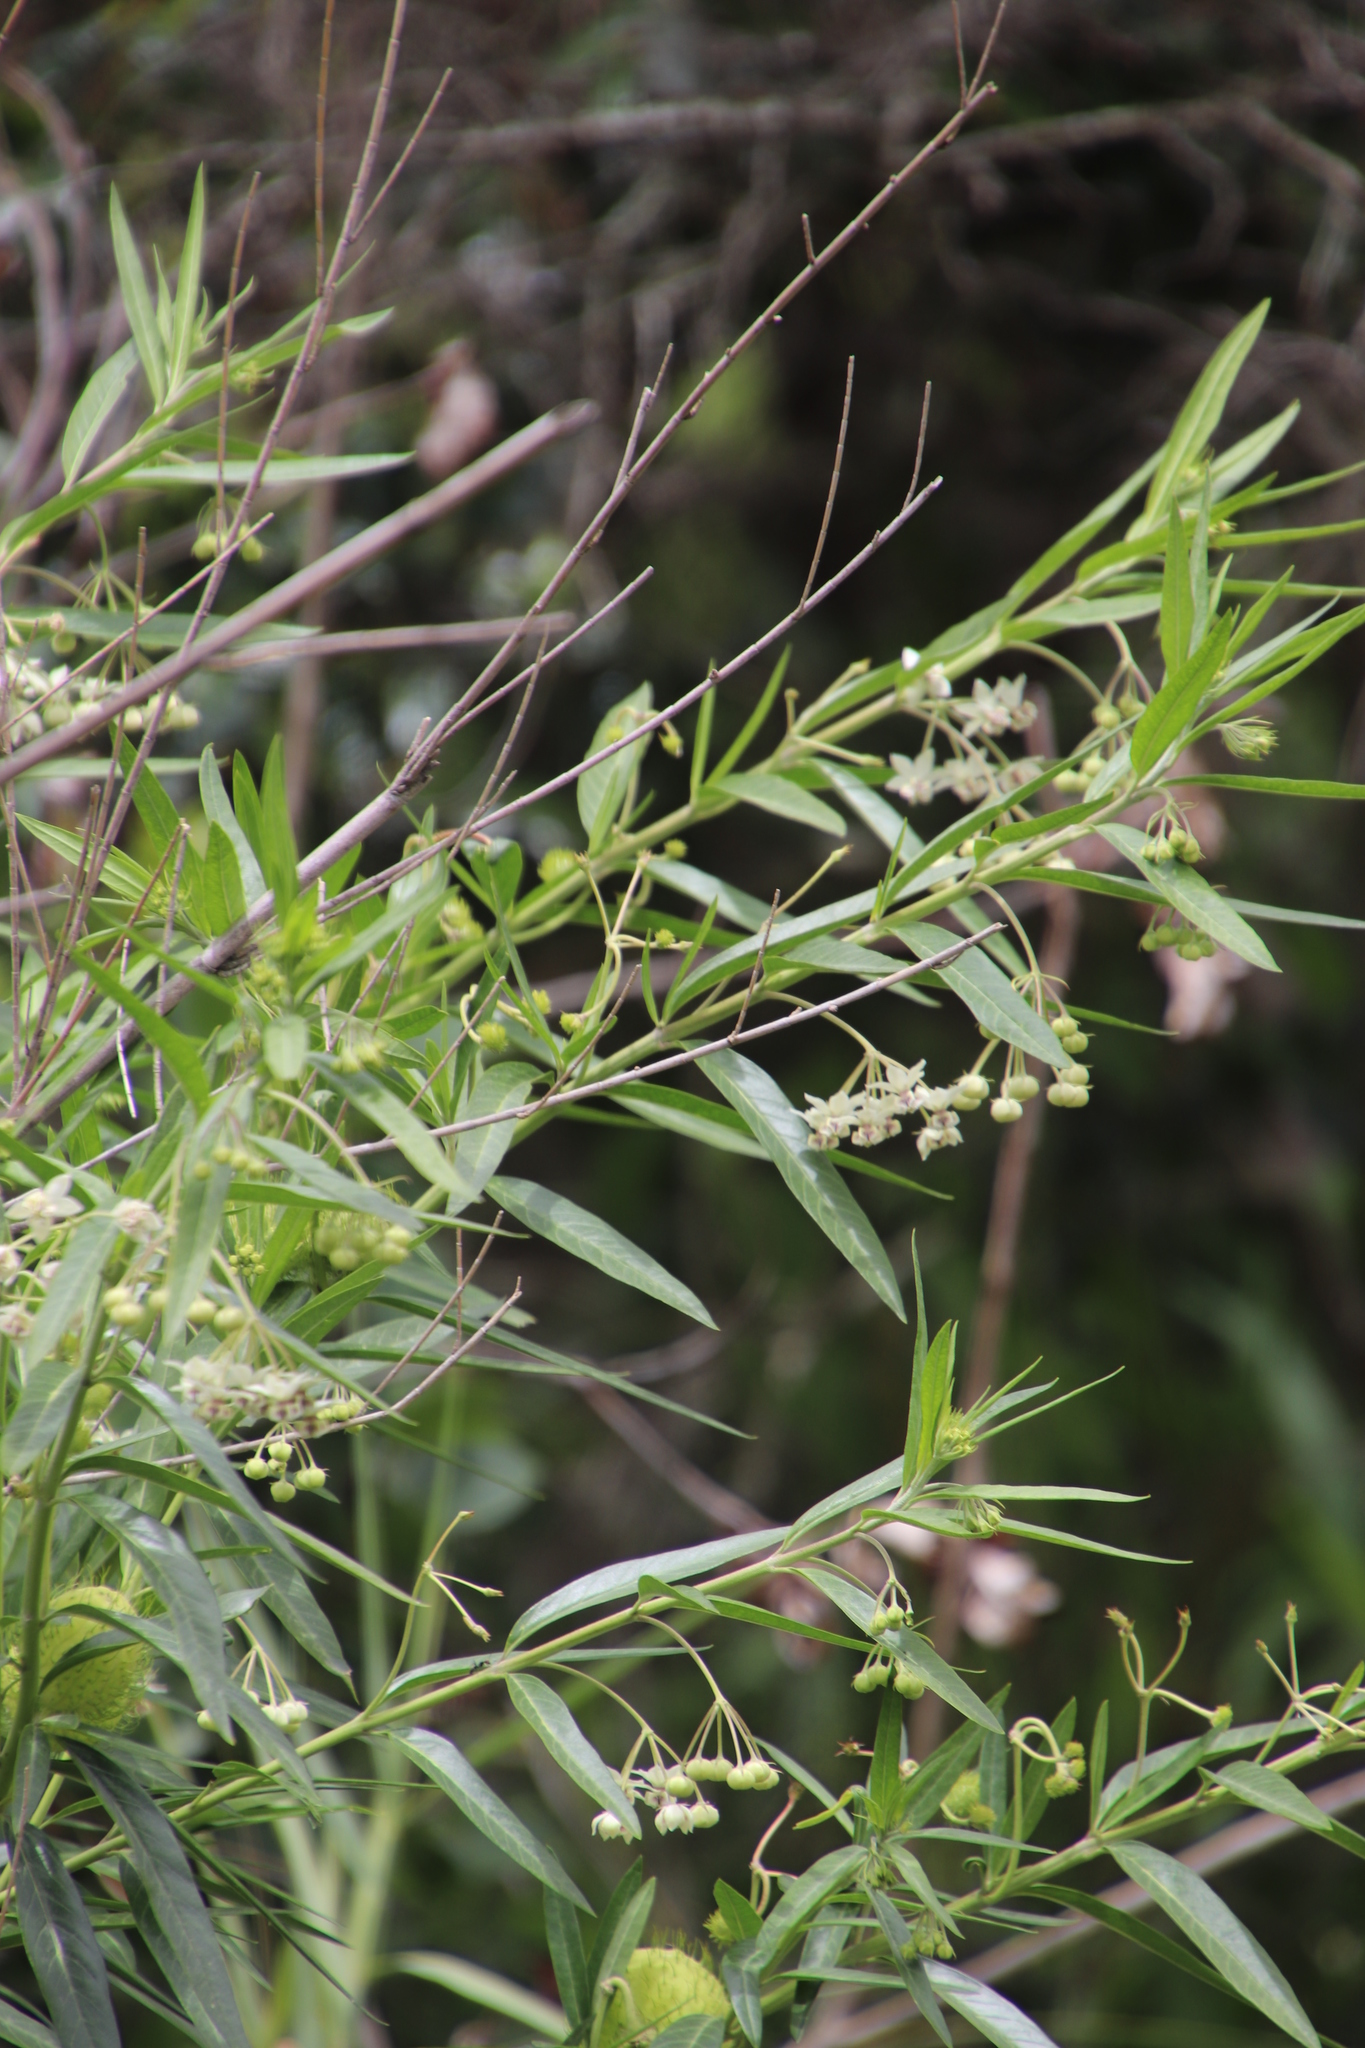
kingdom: Plantae
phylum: Tracheophyta
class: Magnoliopsida
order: Gentianales
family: Apocynaceae
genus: Gomphocarpus
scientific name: Gomphocarpus physocarpus
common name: Balloon cotton bush
